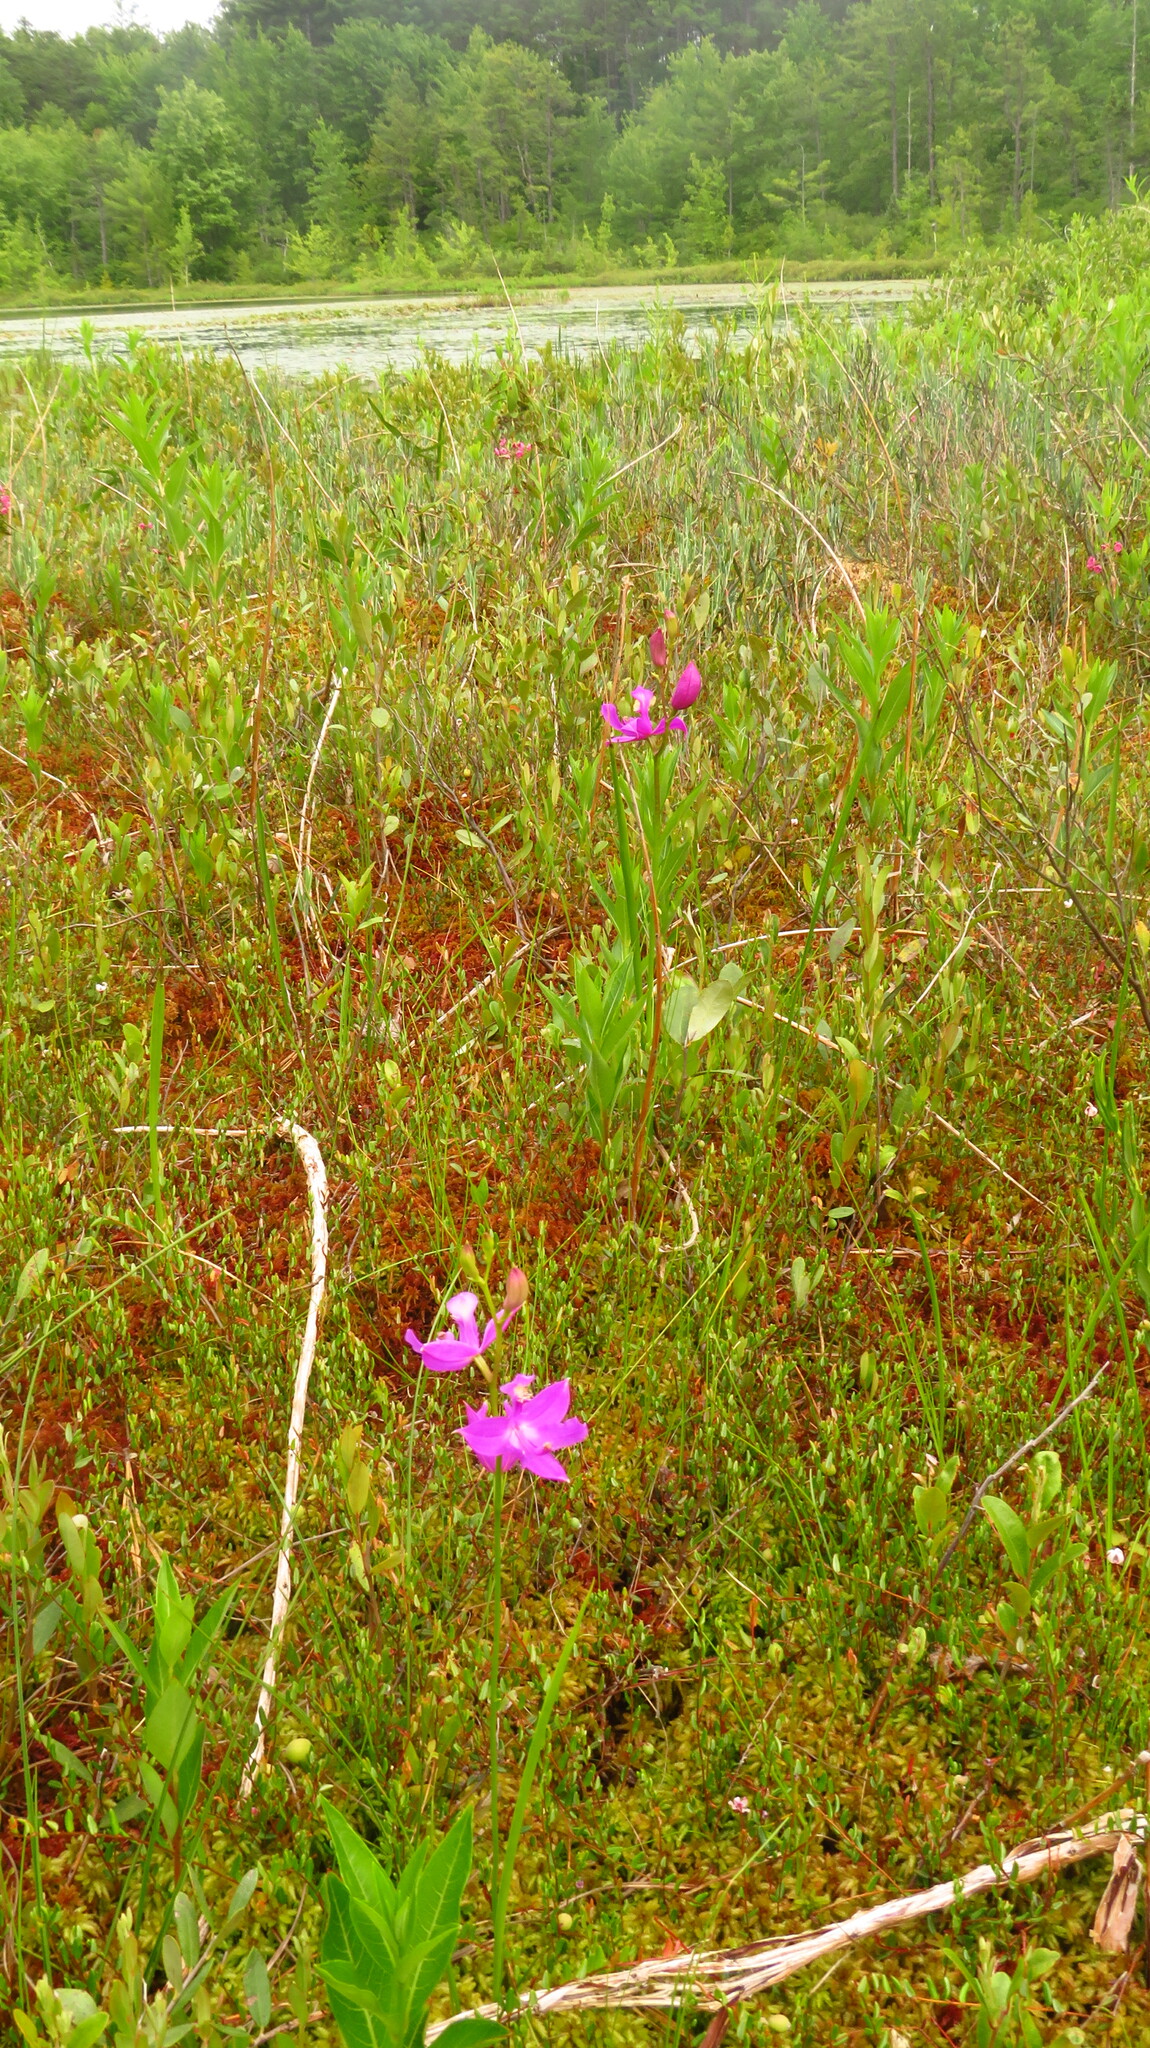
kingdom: Plantae
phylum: Tracheophyta
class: Liliopsida
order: Asparagales
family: Orchidaceae
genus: Calopogon
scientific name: Calopogon tuberosus
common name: Grass-pink
